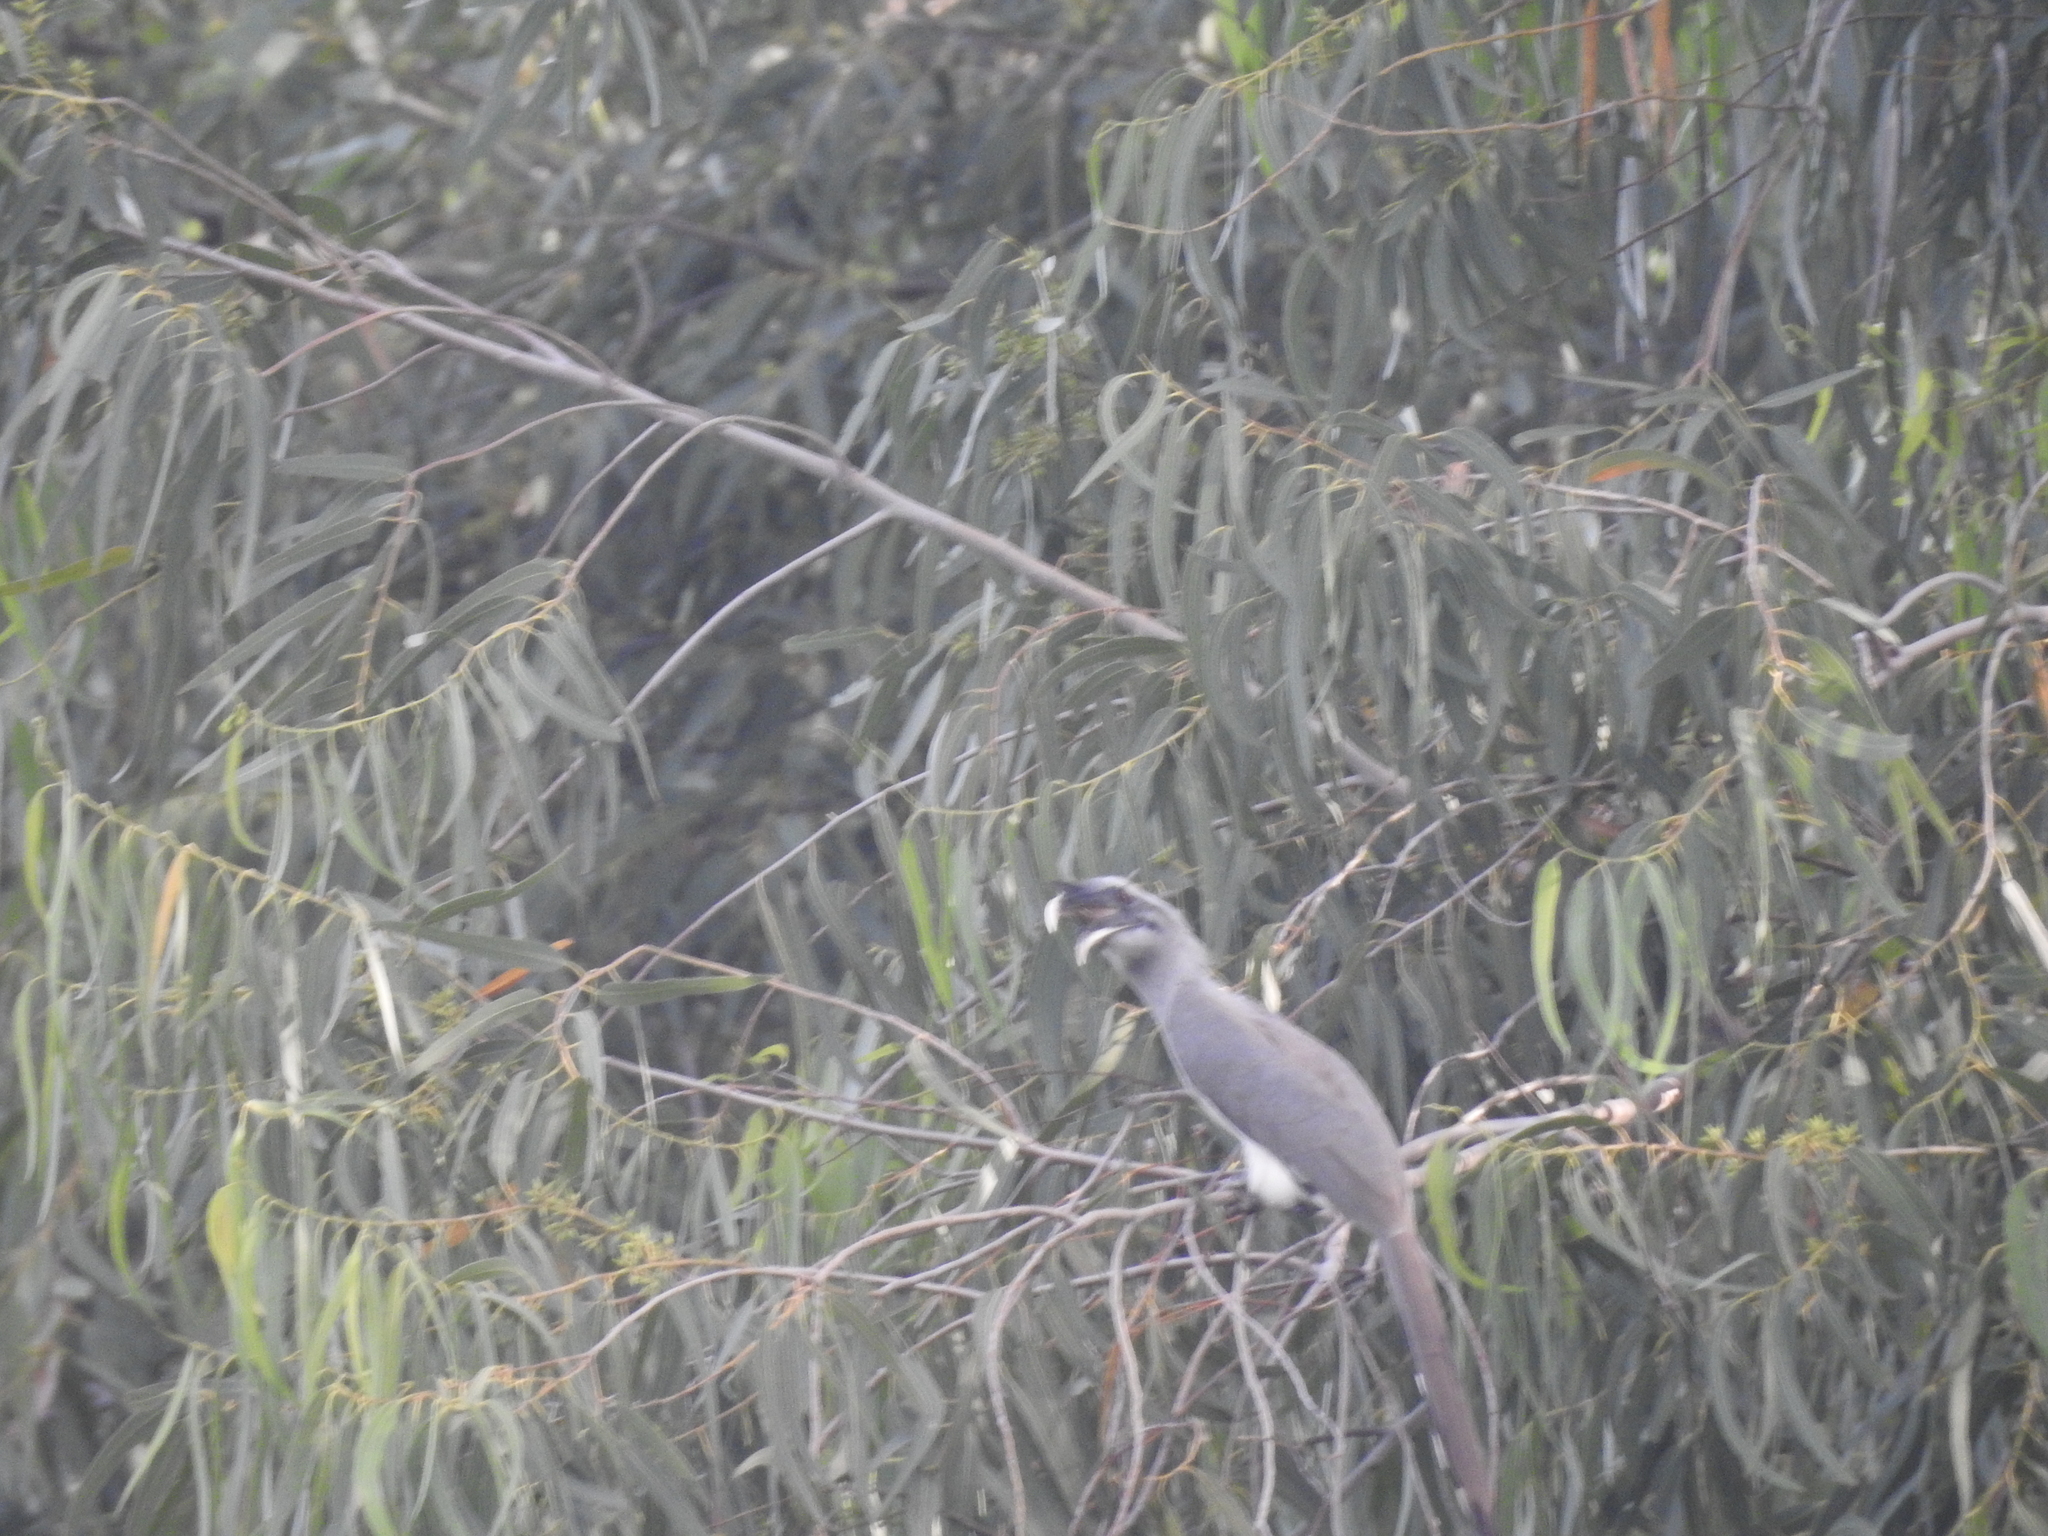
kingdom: Animalia
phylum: Chordata
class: Aves
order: Bucerotiformes
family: Bucerotidae
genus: Ocyceros
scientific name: Ocyceros birostris
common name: Indian grey hornbill
